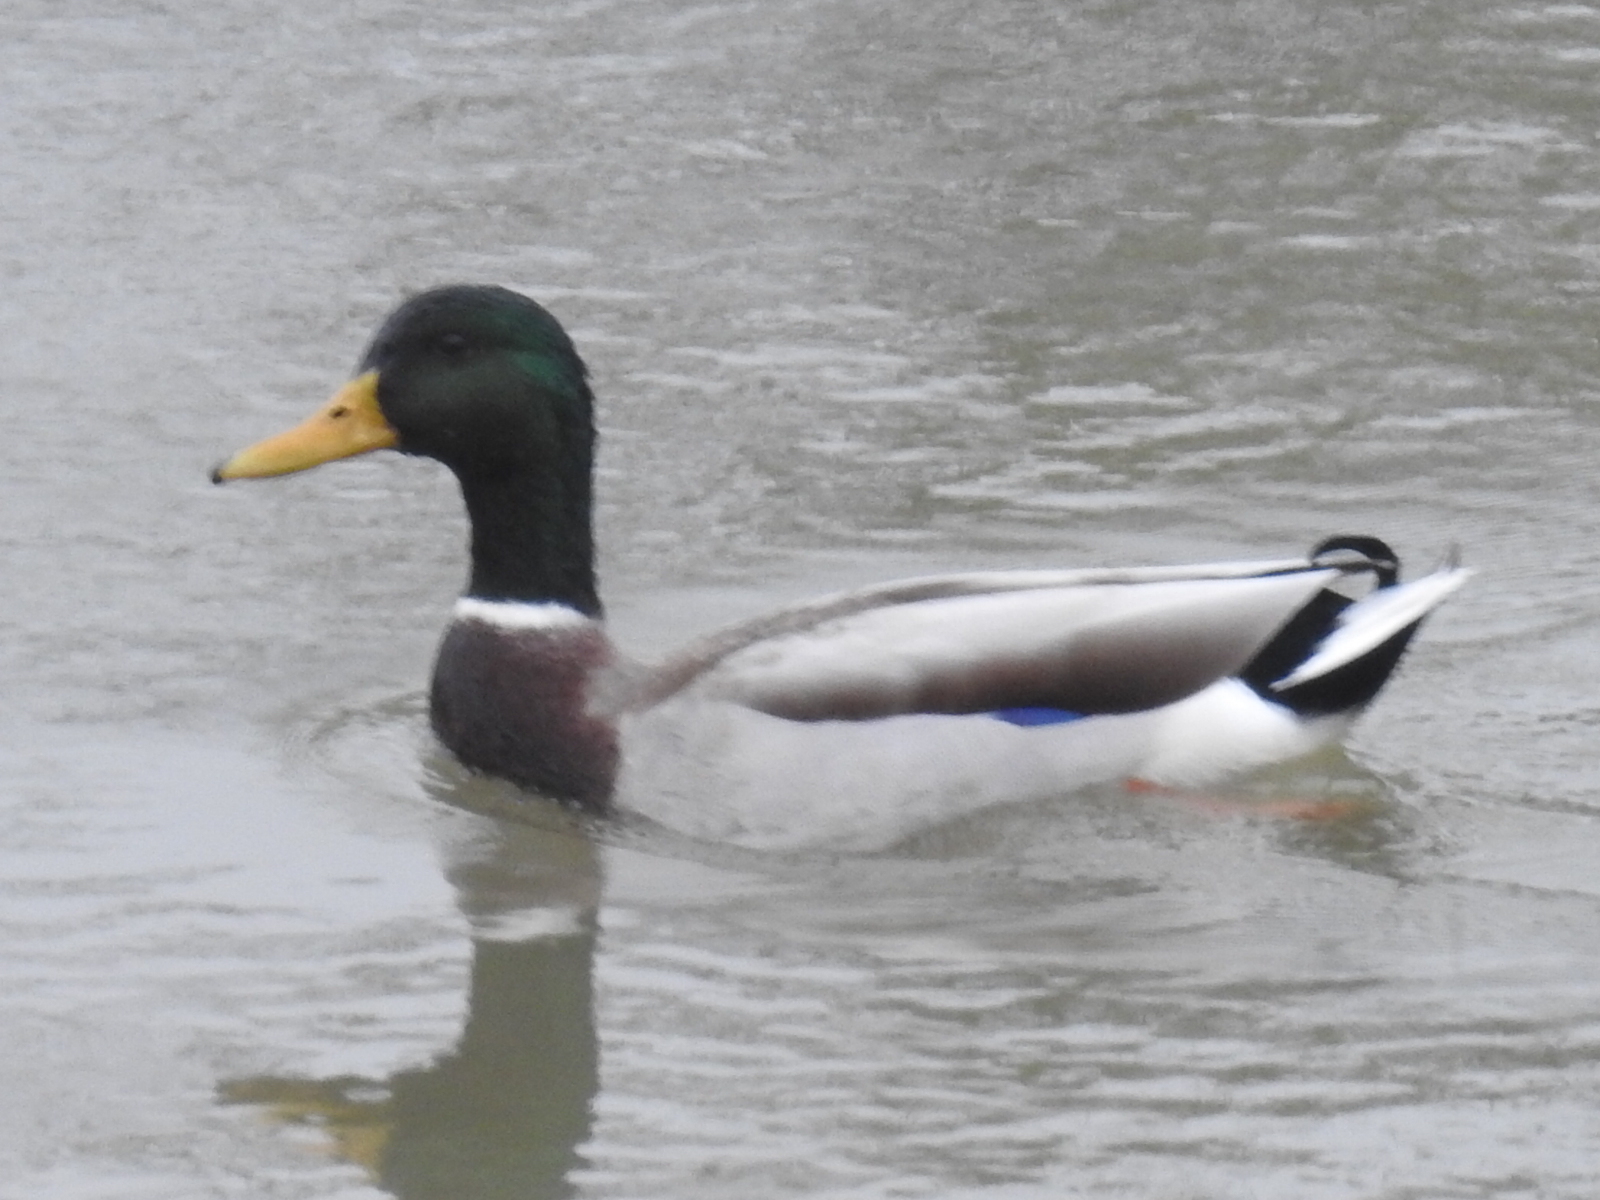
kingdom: Animalia
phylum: Chordata
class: Aves
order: Anseriformes
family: Anatidae
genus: Anas
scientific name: Anas platyrhynchos
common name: Mallard
